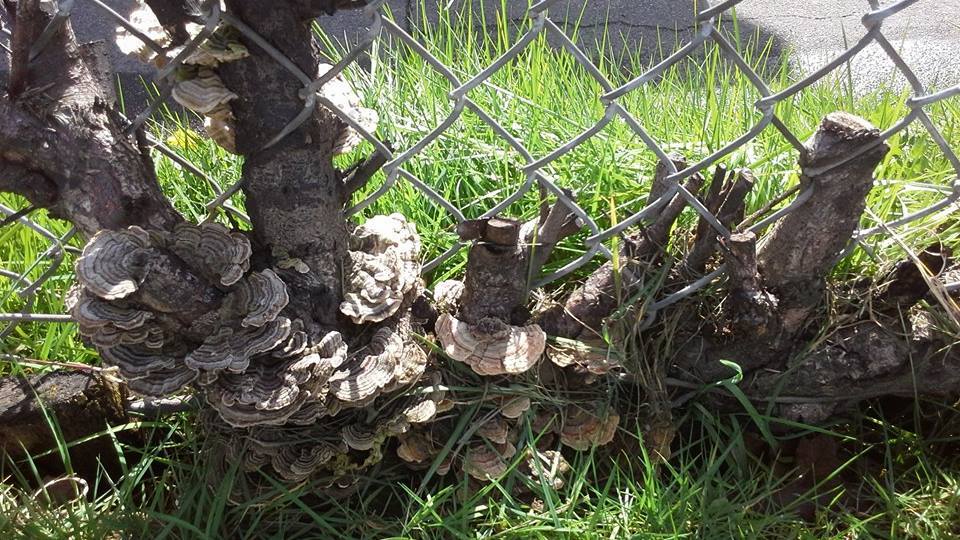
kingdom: Fungi
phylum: Basidiomycota
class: Agaricomycetes
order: Polyporales
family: Polyporaceae
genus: Trametes
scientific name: Trametes versicolor
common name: Turkeytail
